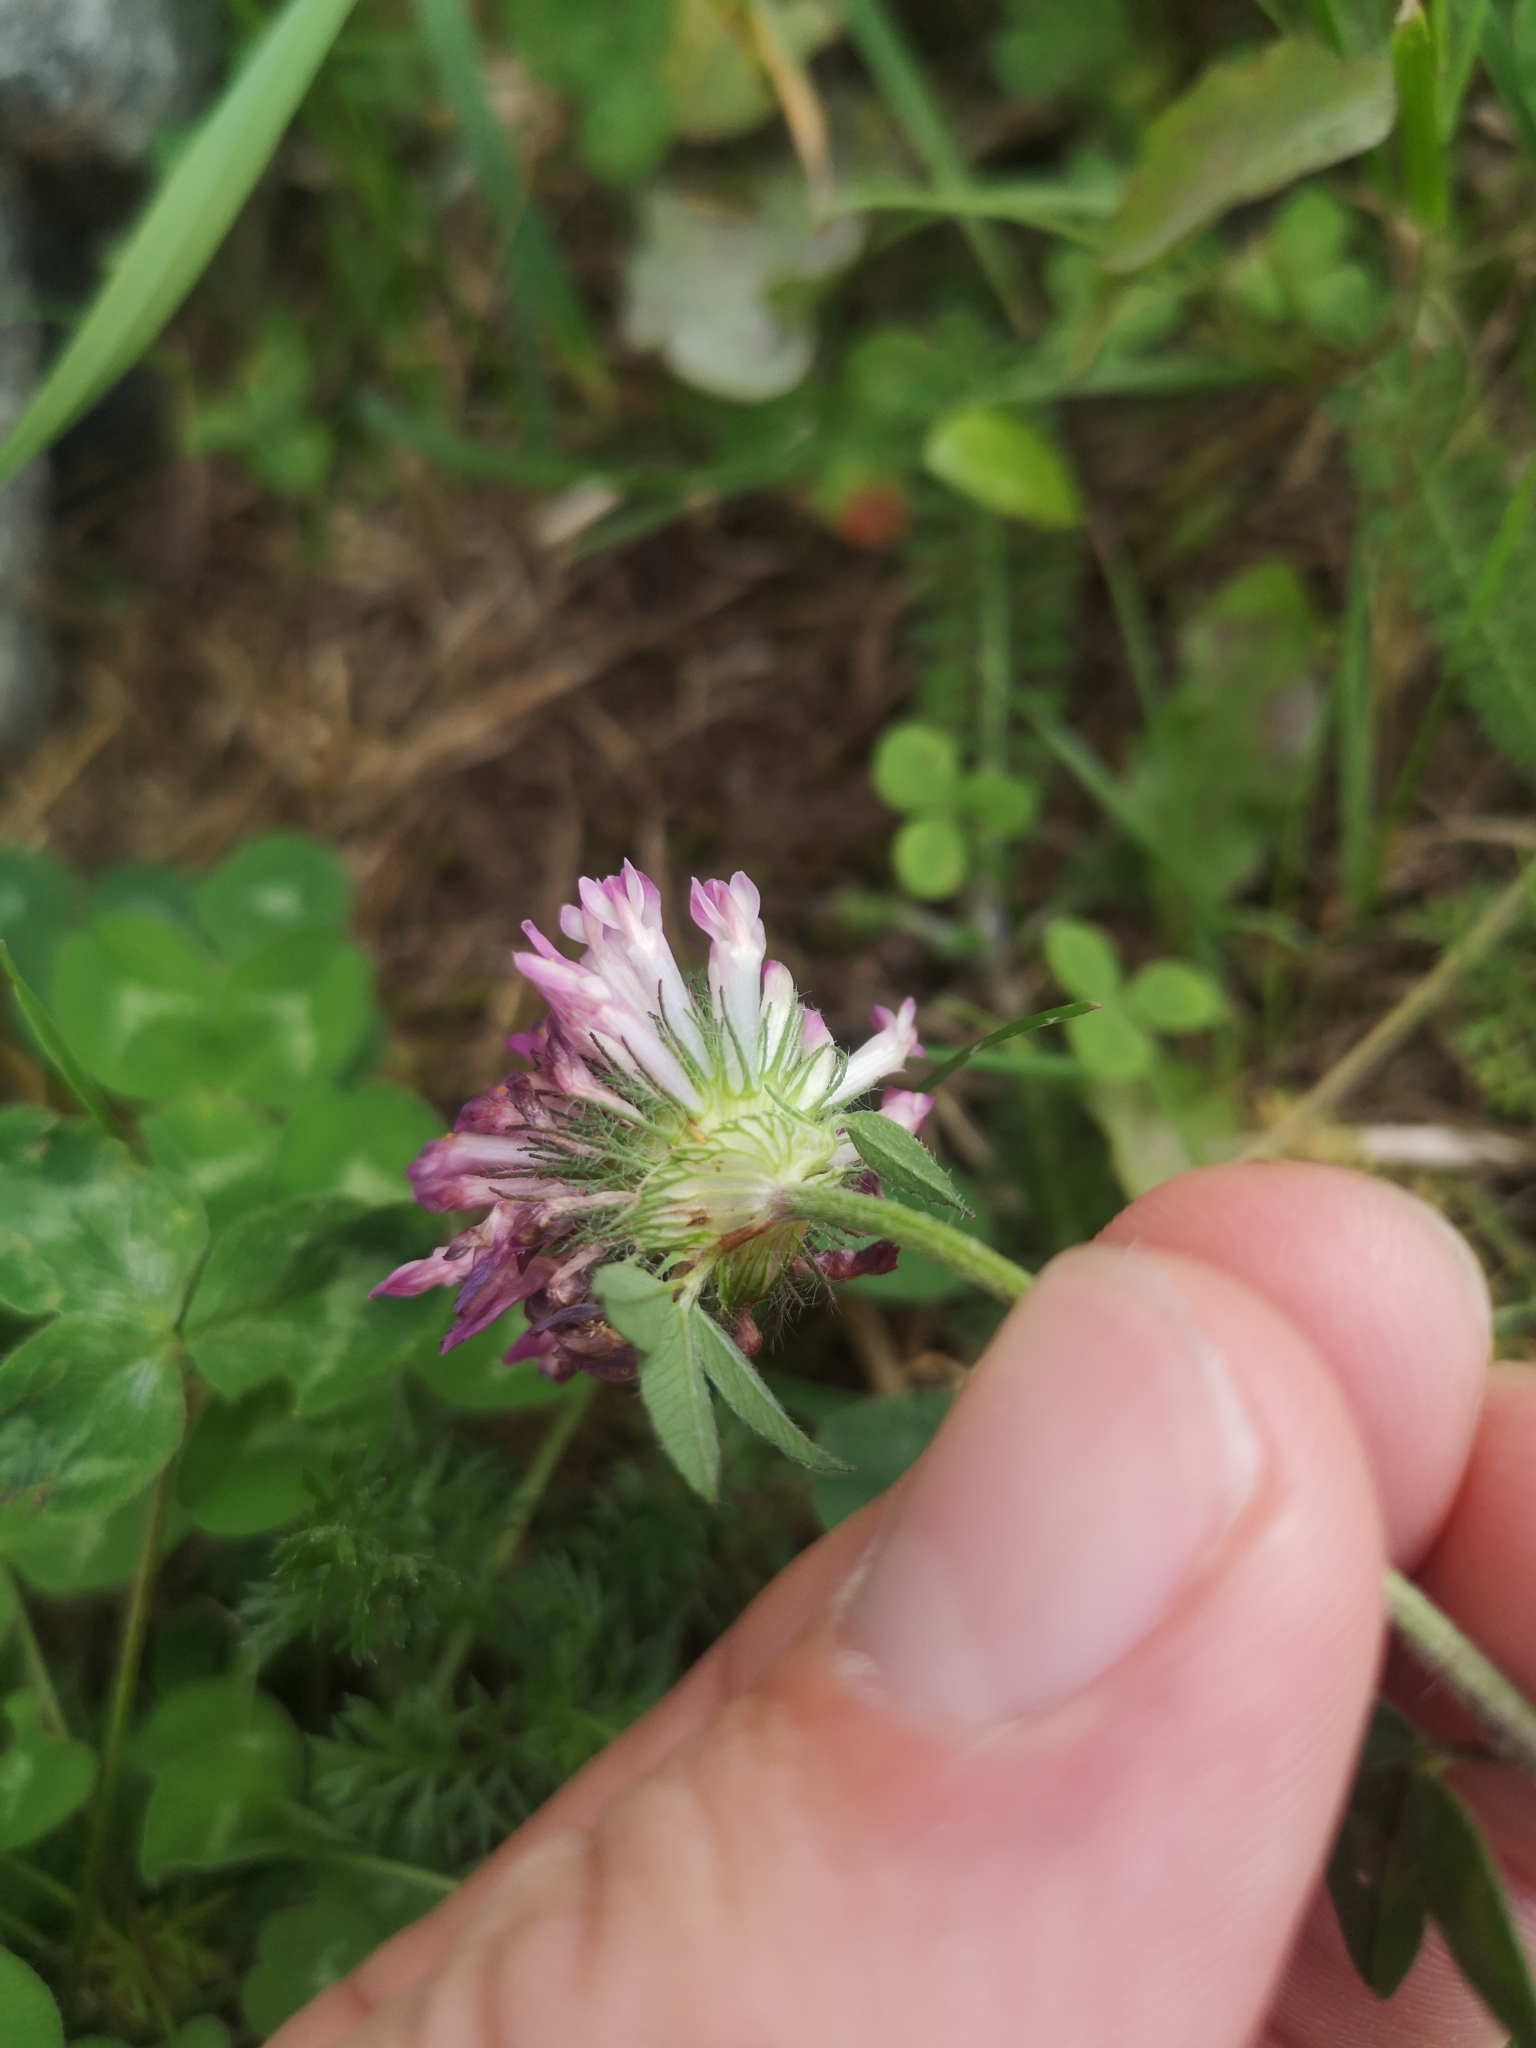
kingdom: Plantae
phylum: Tracheophyta
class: Magnoliopsida
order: Fabales
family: Fabaceae
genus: Trifolium
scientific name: Trifolium pratense
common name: Red clover
